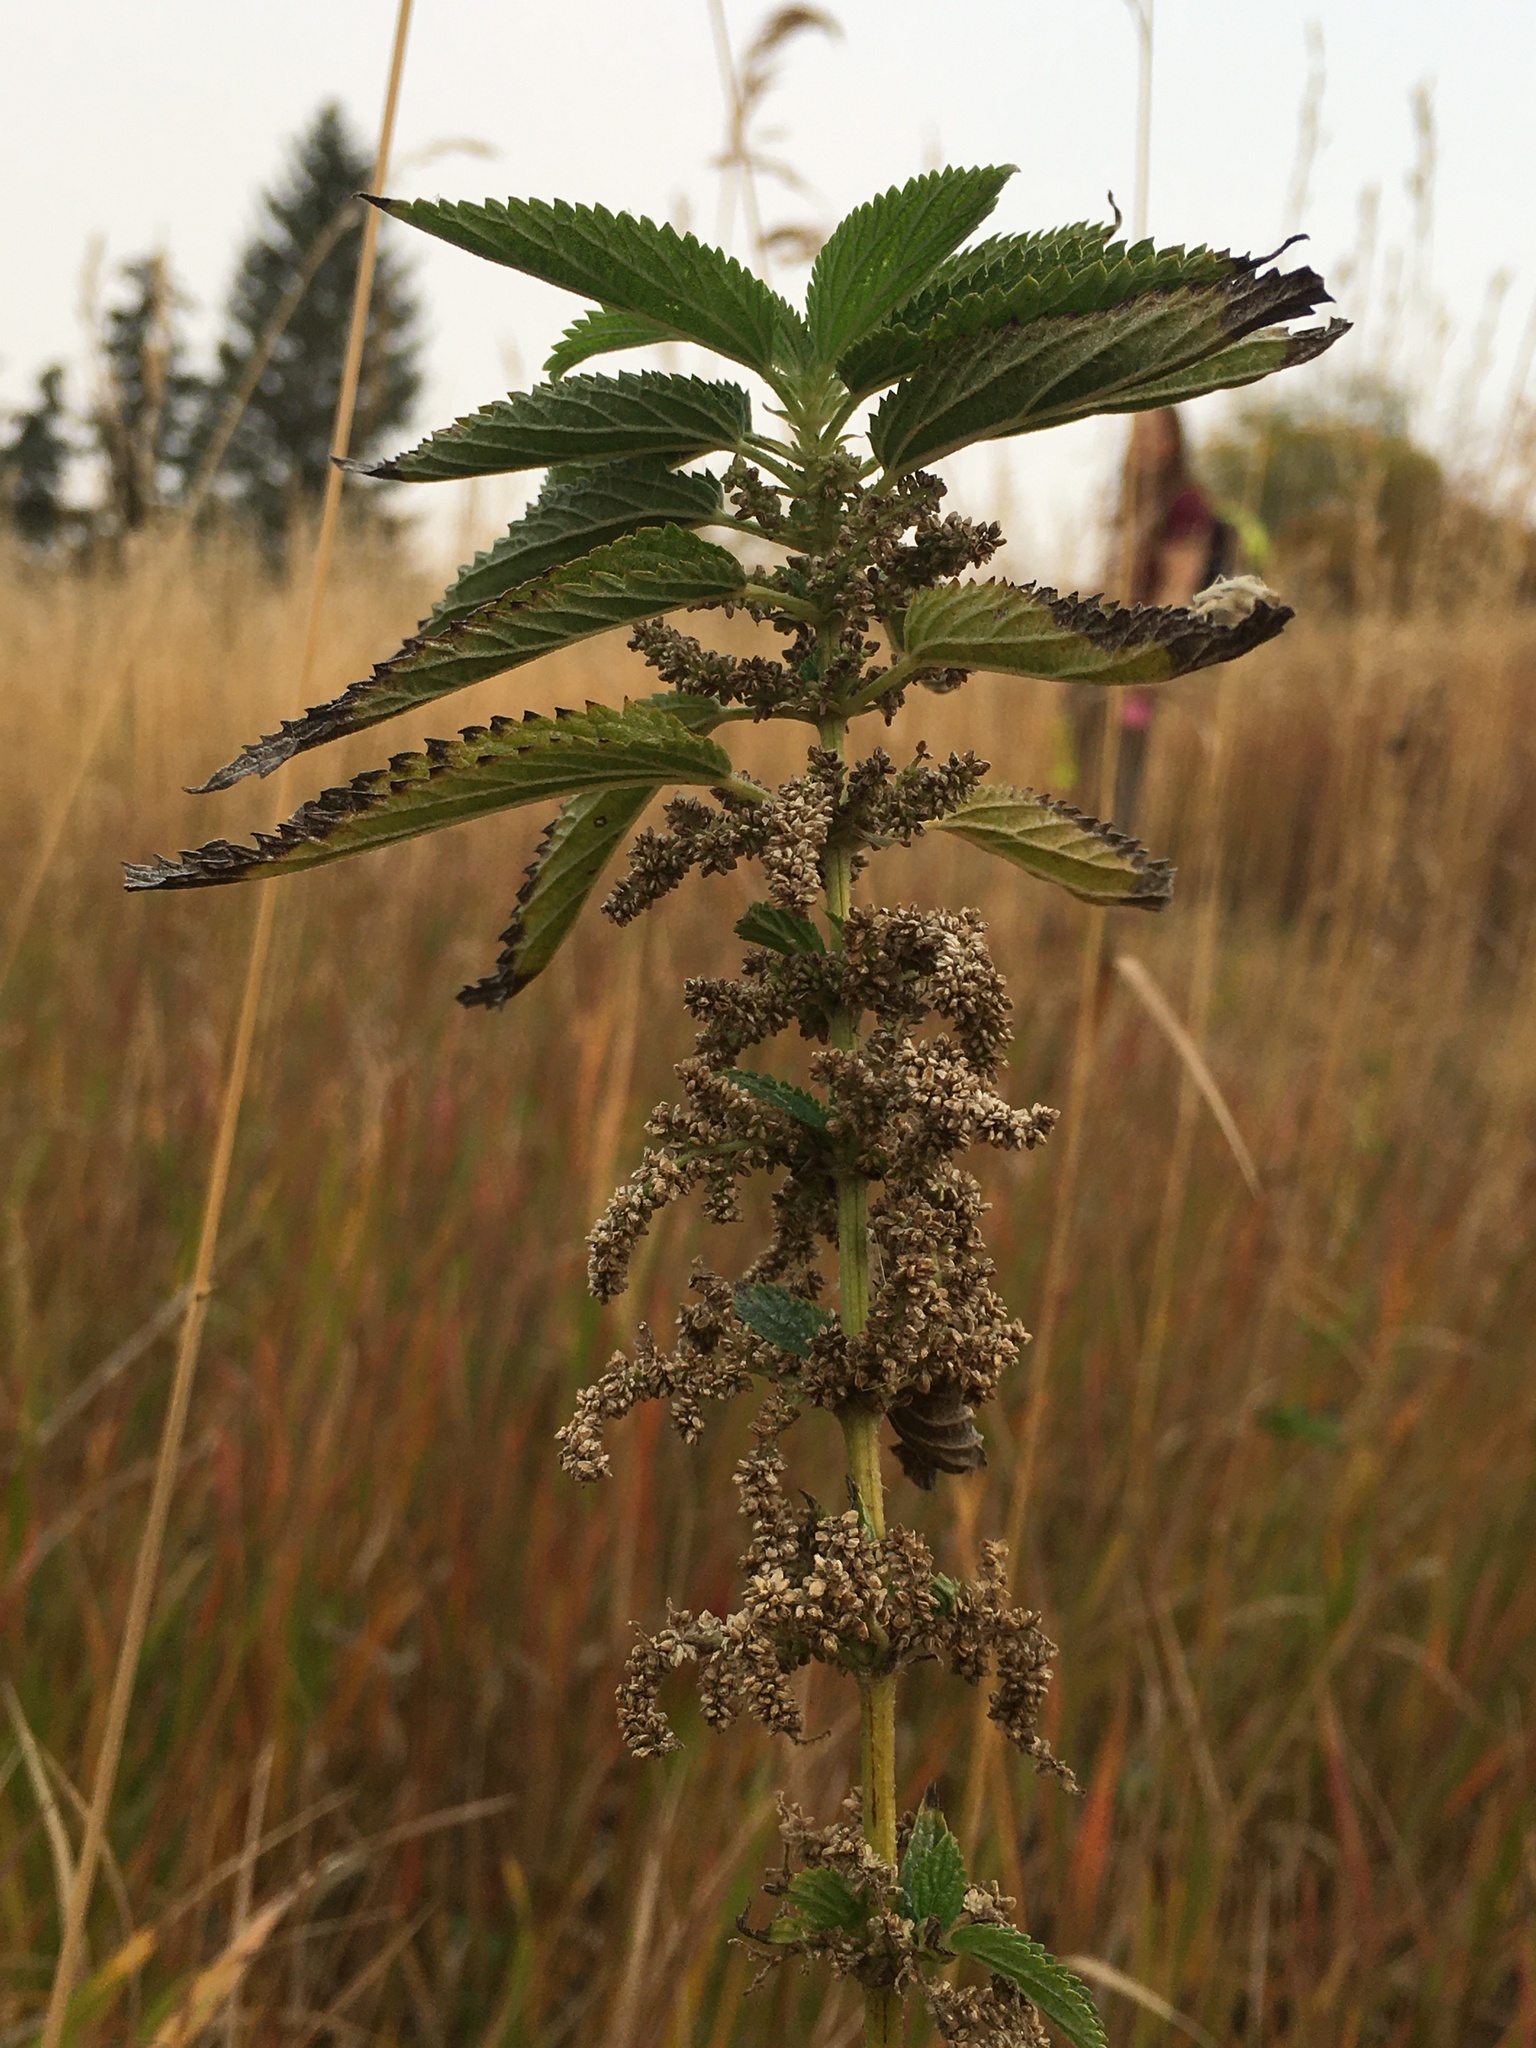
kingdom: Plantae
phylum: Tracheophyta
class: Magnoliopsida
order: Rosales
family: Urticaceae
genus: Urtica
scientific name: Urtica gracilis
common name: Slender stinging nettle
